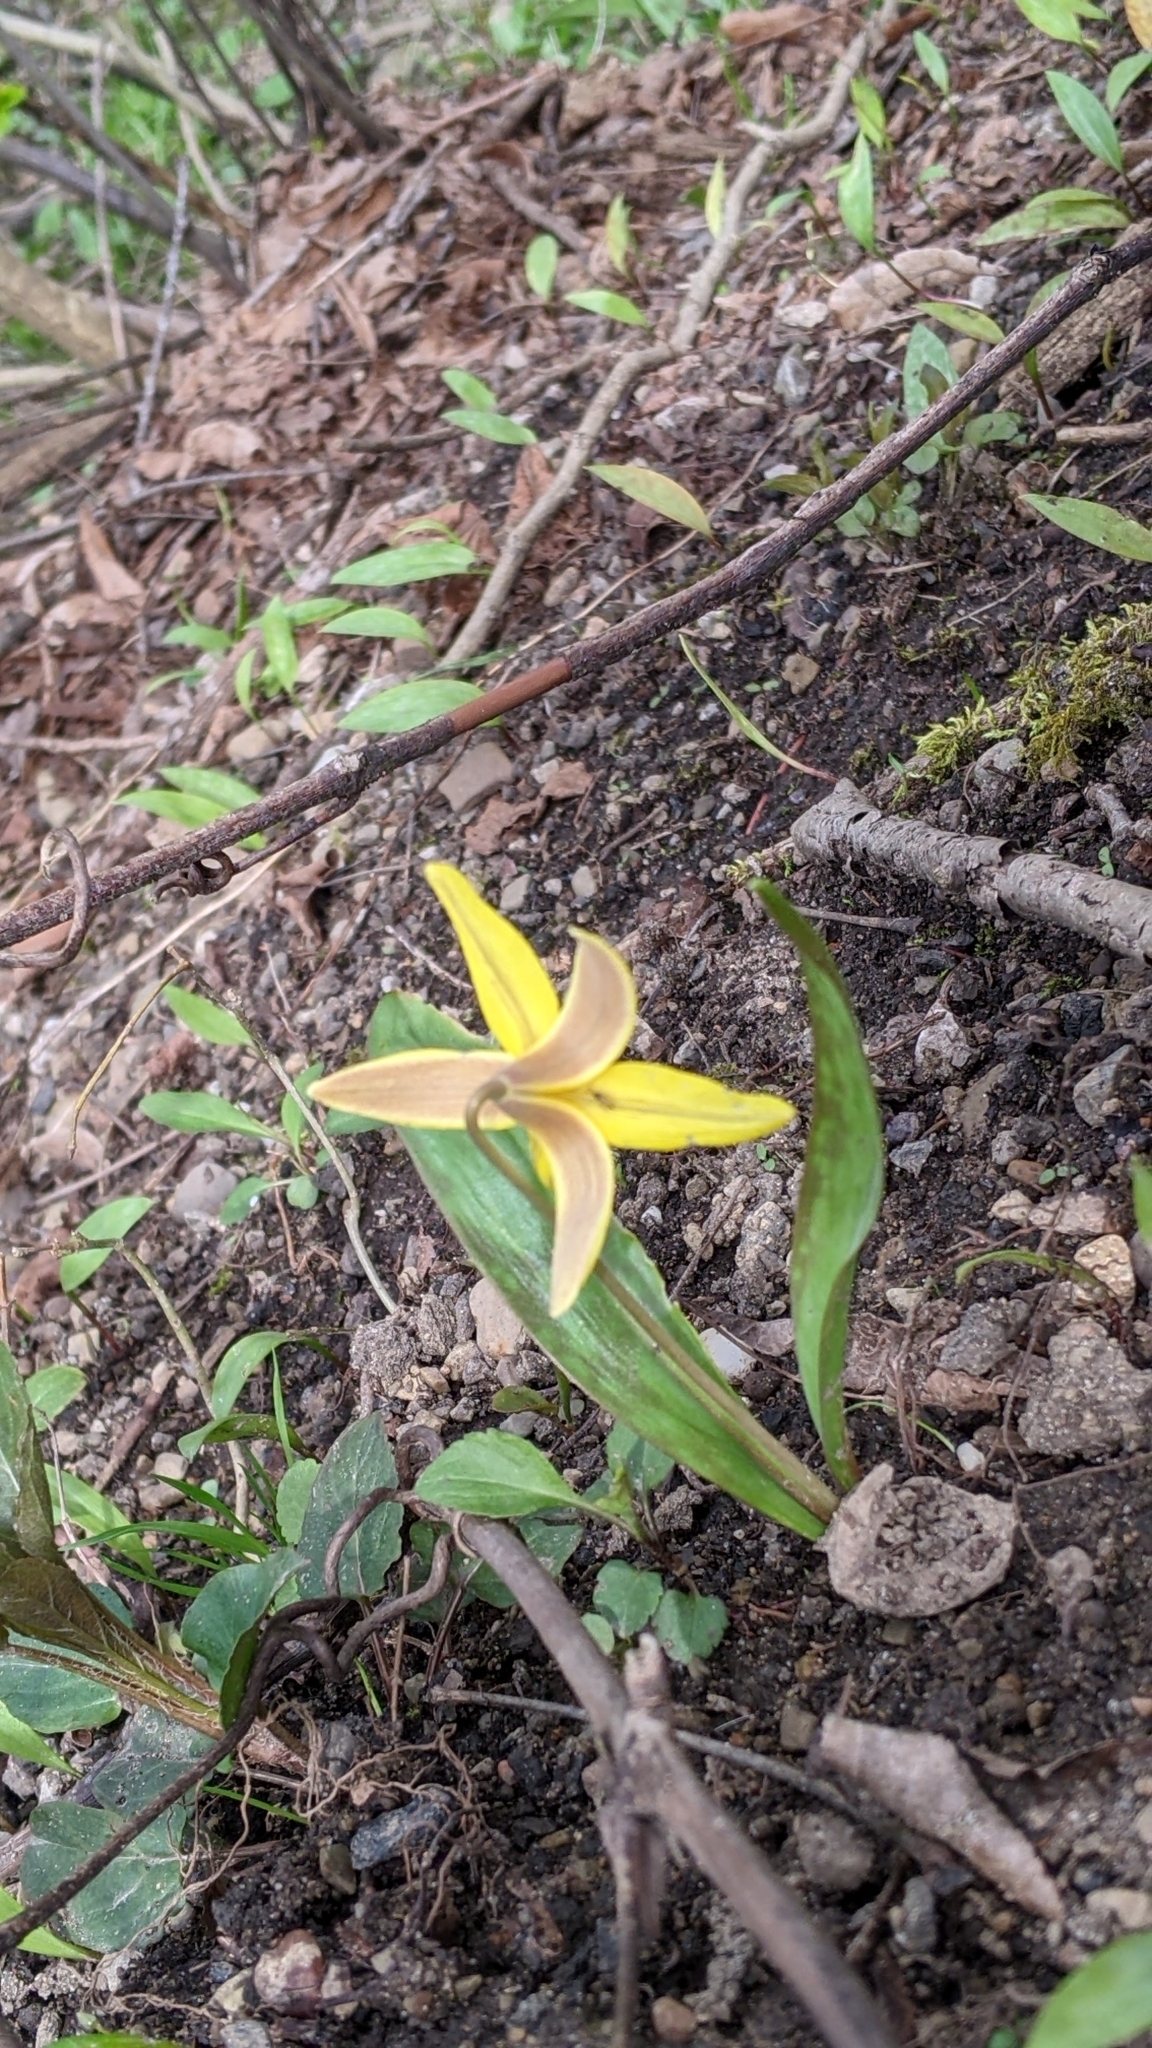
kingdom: Plantae
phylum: Tracheophyta
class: Liliopsida
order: Liliales
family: Liliaceae
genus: Erythronium
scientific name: Erythronium americanum
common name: Yellow adder's-tongue
